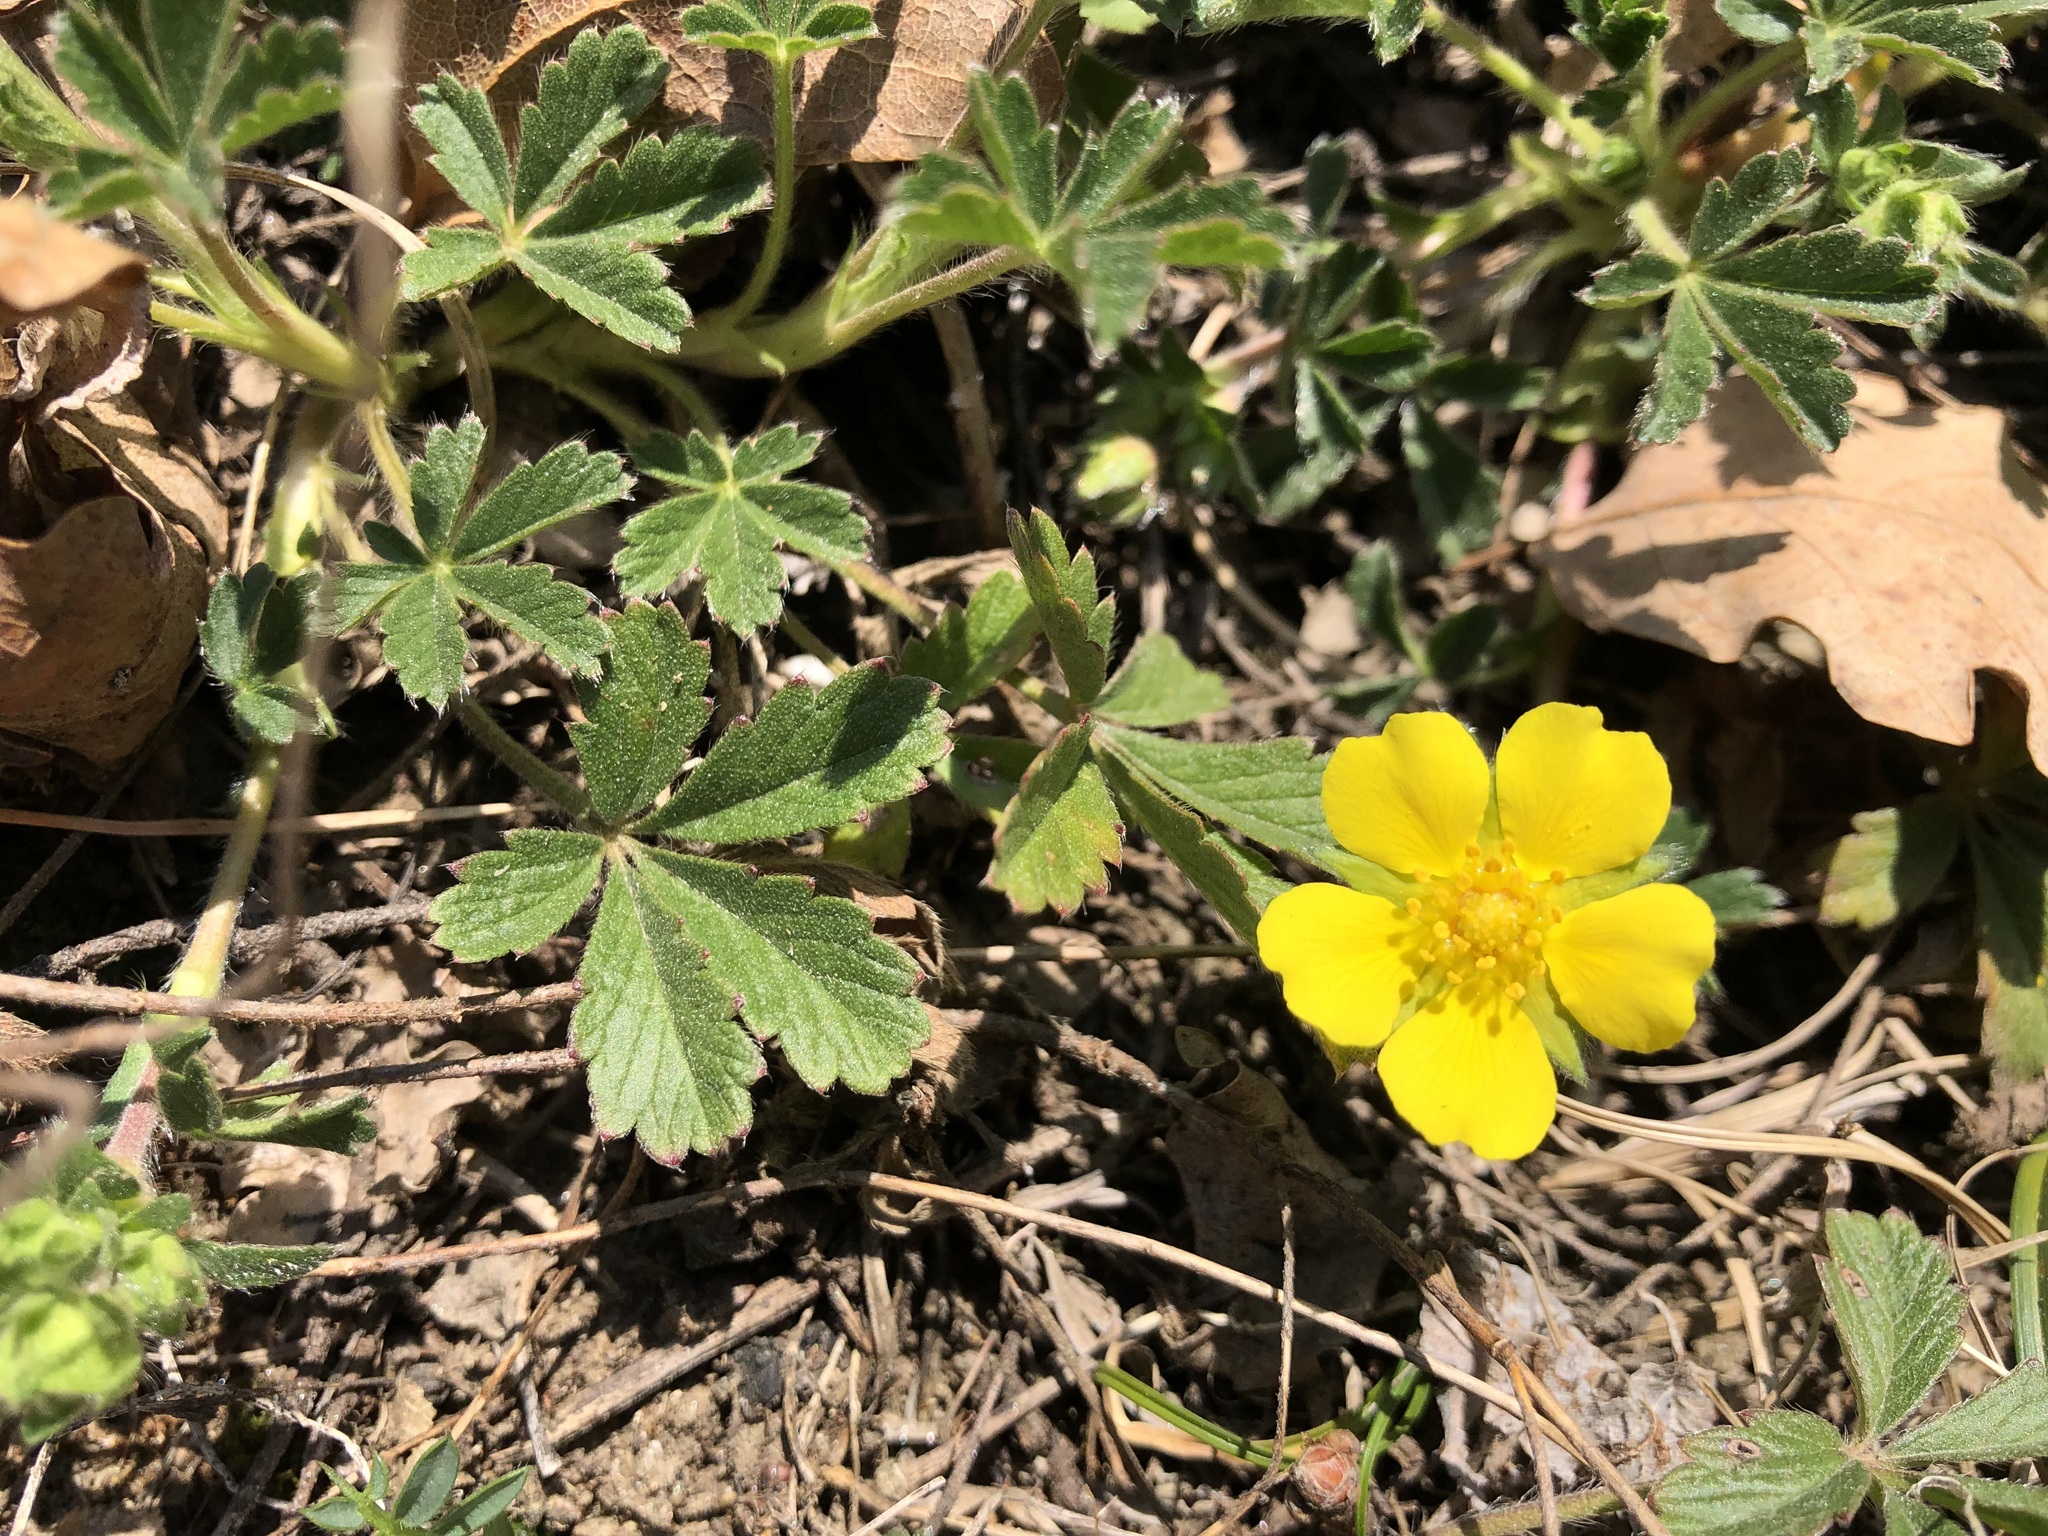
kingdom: Plantae
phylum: Tracheophyta
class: Magnoliopsida
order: Rosales
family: Rosaceae
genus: Potentilla
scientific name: Potentilla verna
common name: Spring cinquefoil
